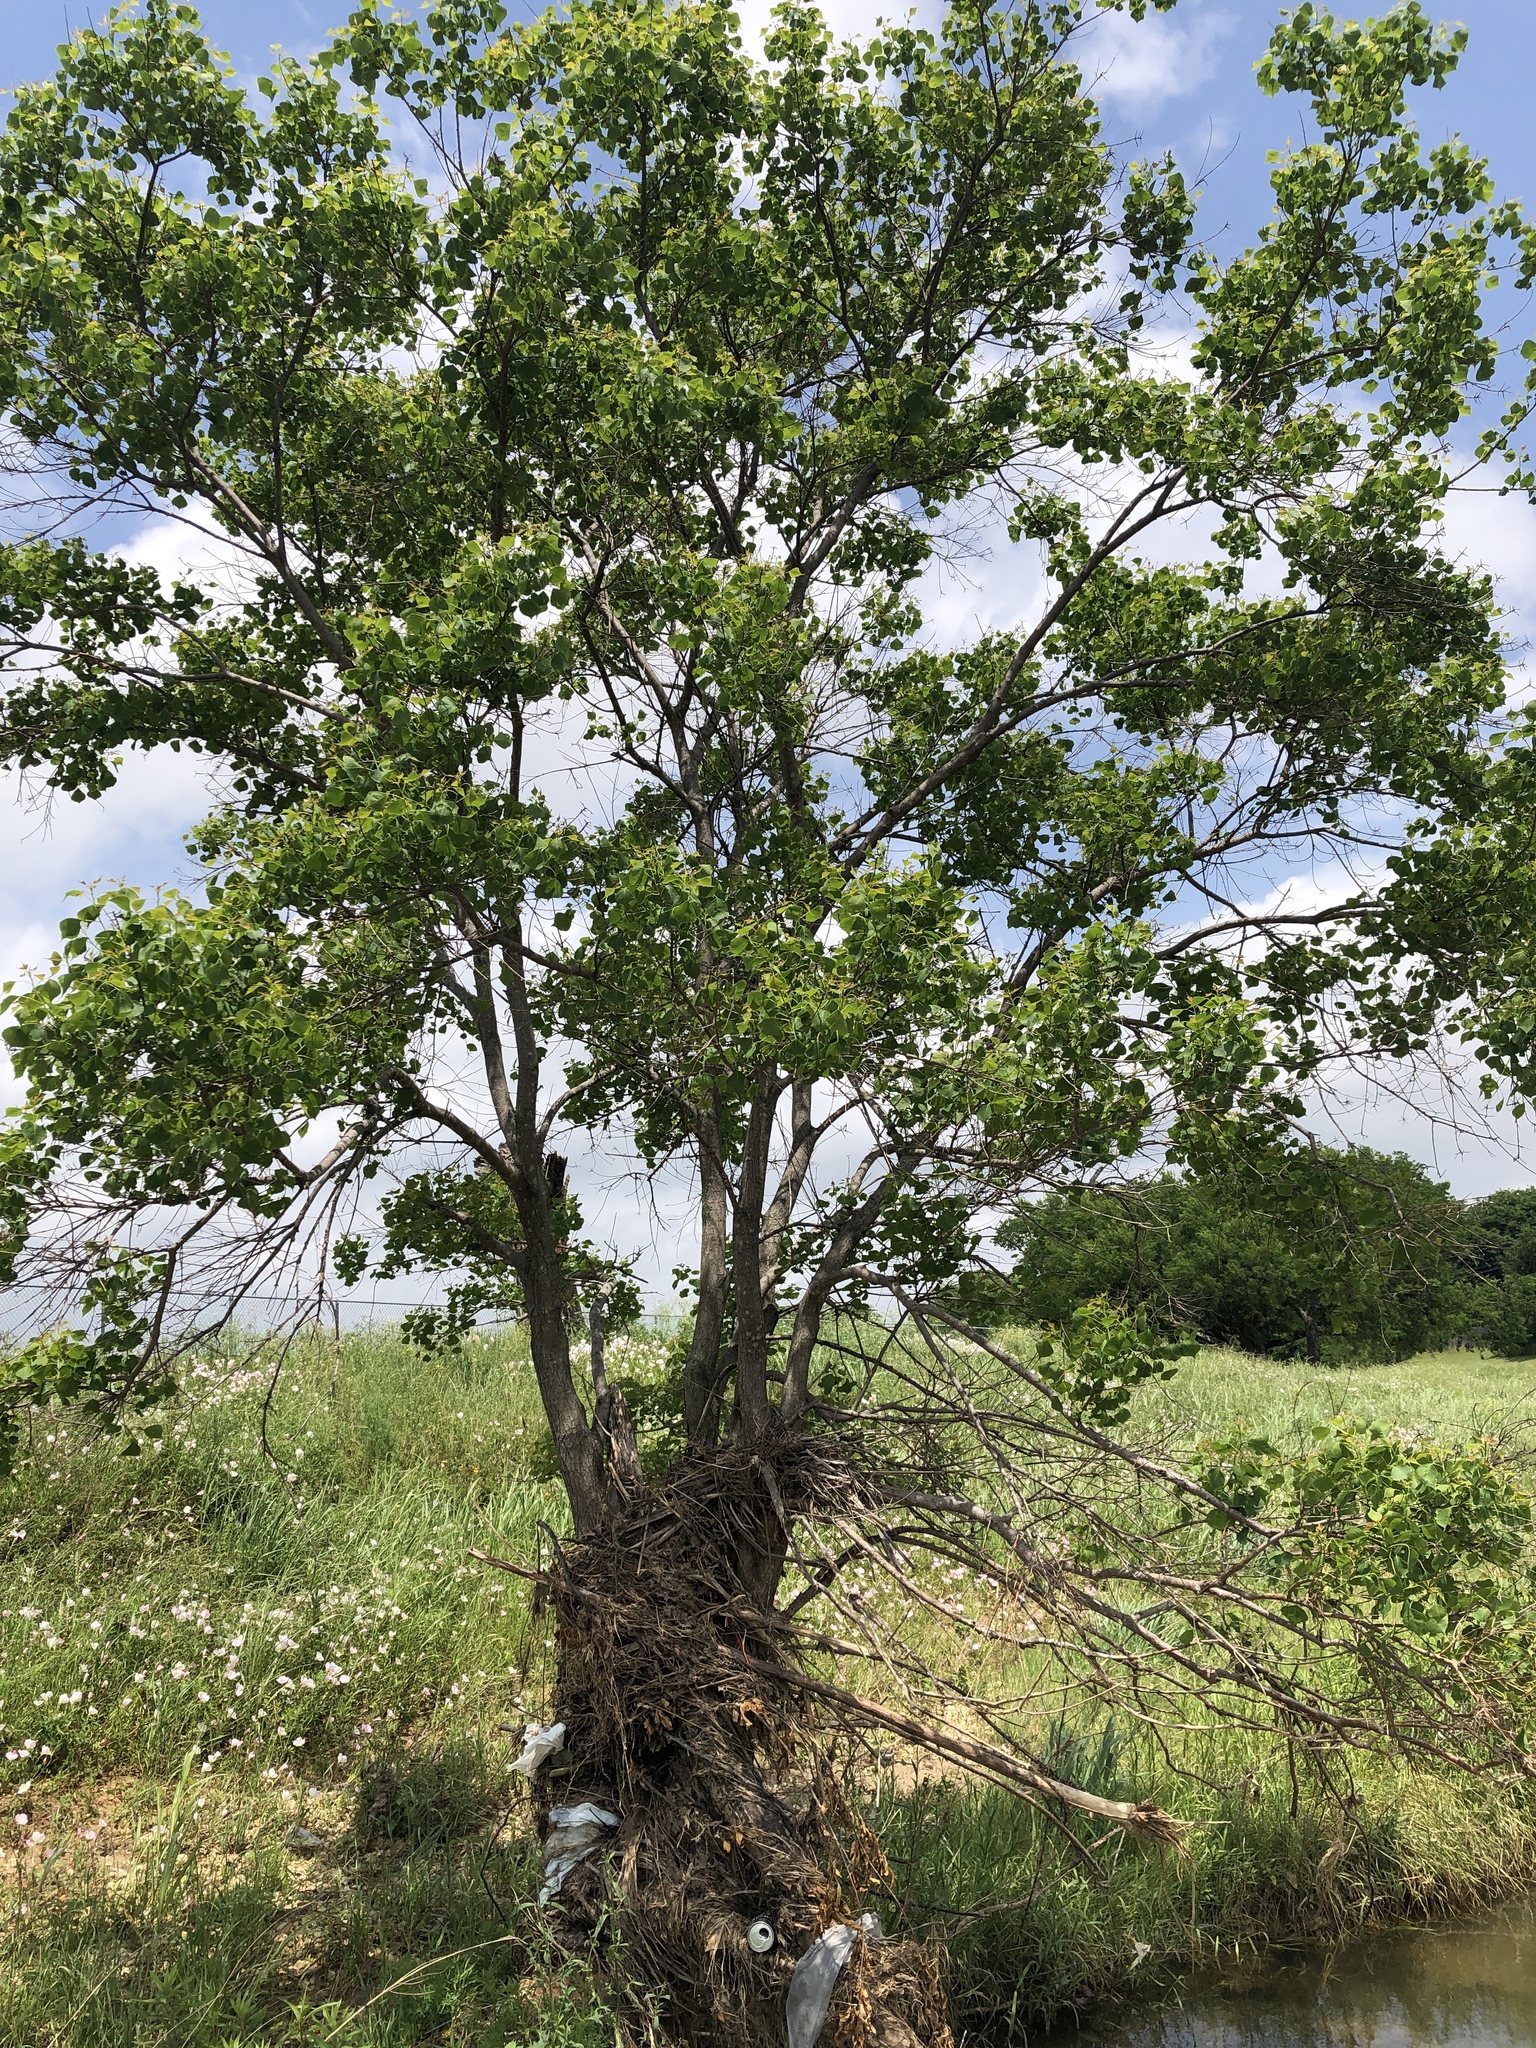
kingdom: Plantae
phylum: Tracheophyta
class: Magnoliopsida
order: Malpighiales
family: Euphorbiaceae
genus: Triadica
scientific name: Triadica sebifera
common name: Chinese tallow
